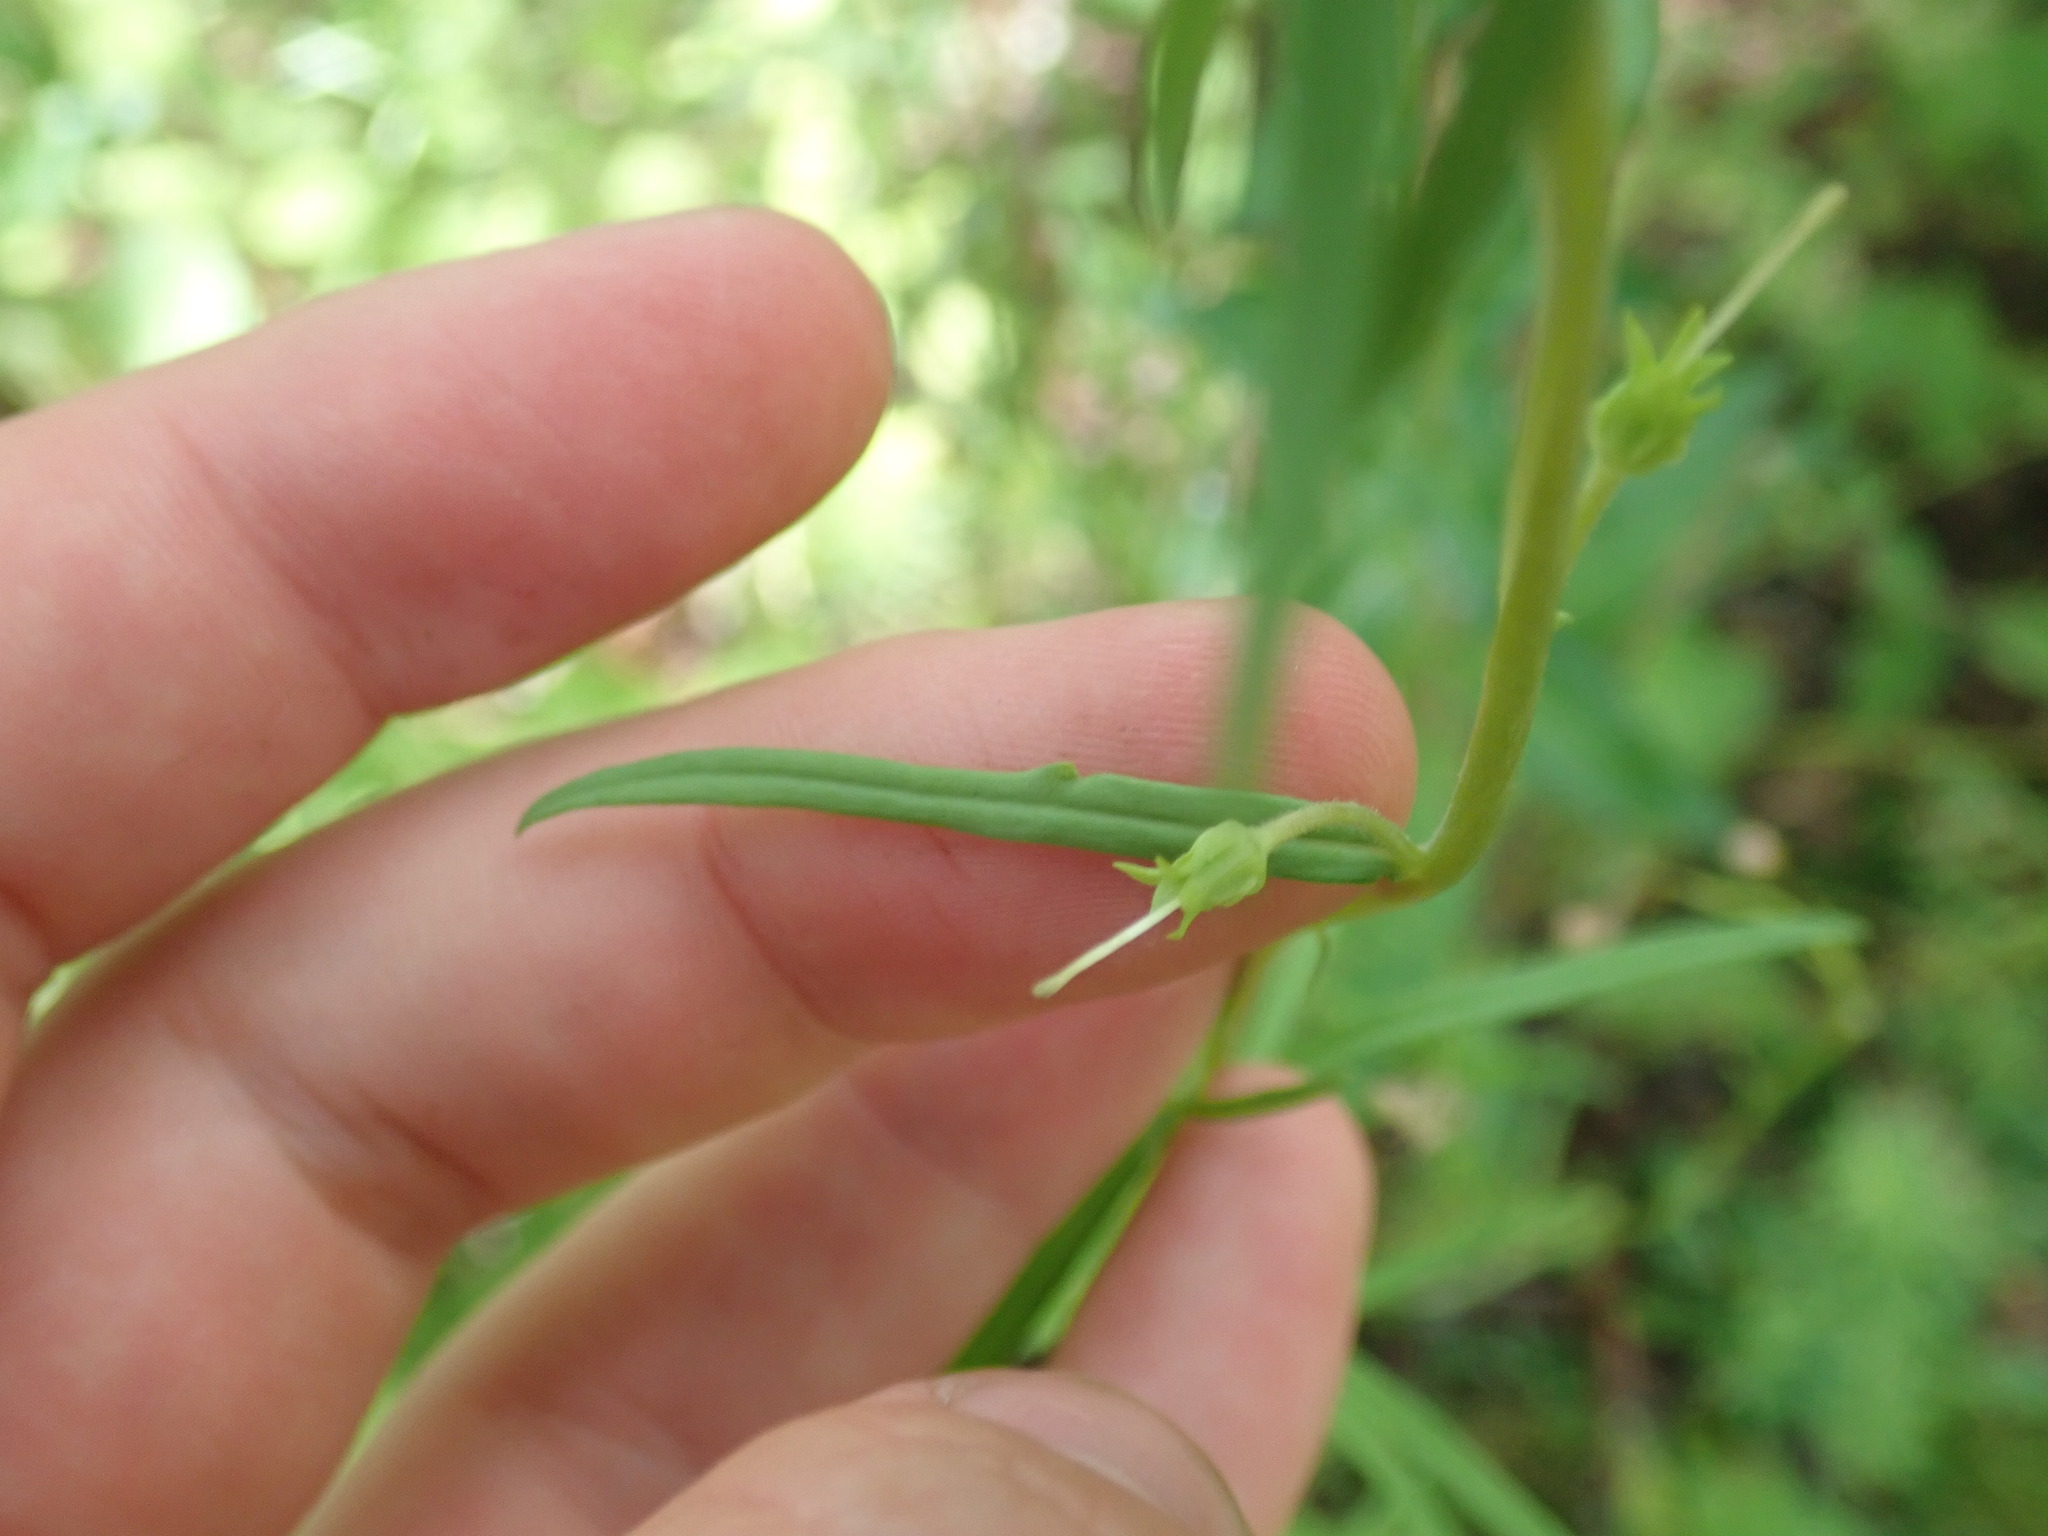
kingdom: Plantae
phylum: Tracheophyta
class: Magnoliopsida
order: Lamiales
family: Plantaginaceae
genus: Linaria
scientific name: Linaria vulgaris
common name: Butter and eggs
